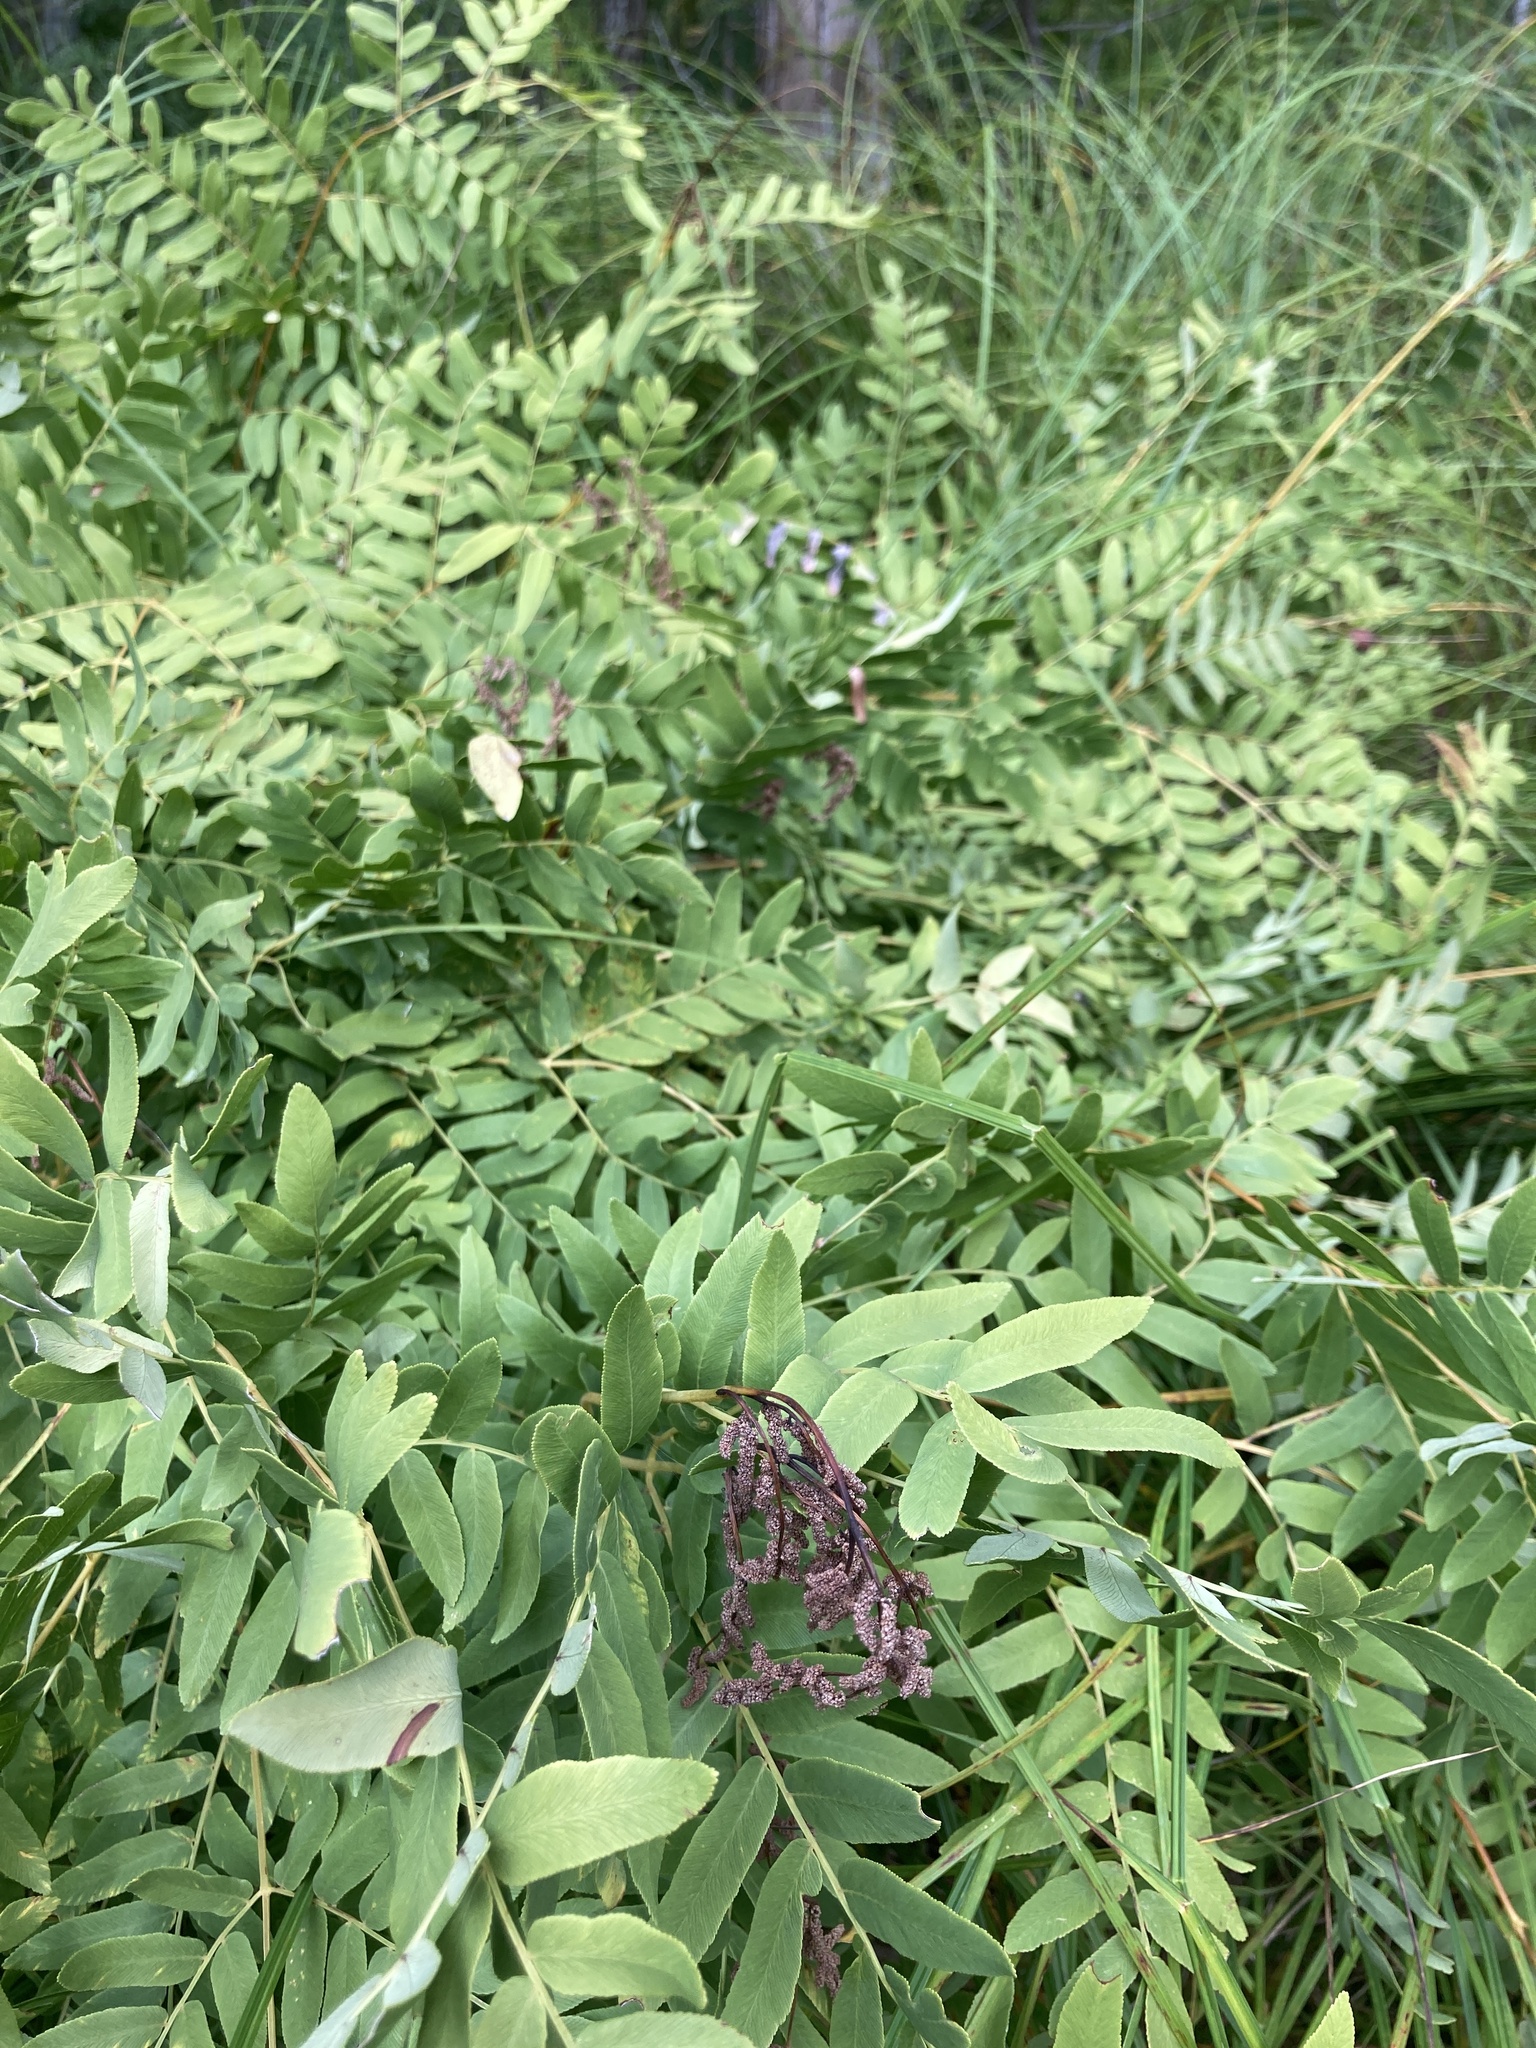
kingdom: Plantae
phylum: Tracheophyta
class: Polypodiopsida
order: Osmundales
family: Osmundaceae
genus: Osmunda
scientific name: Osmunda spectabilis
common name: American royal fern
